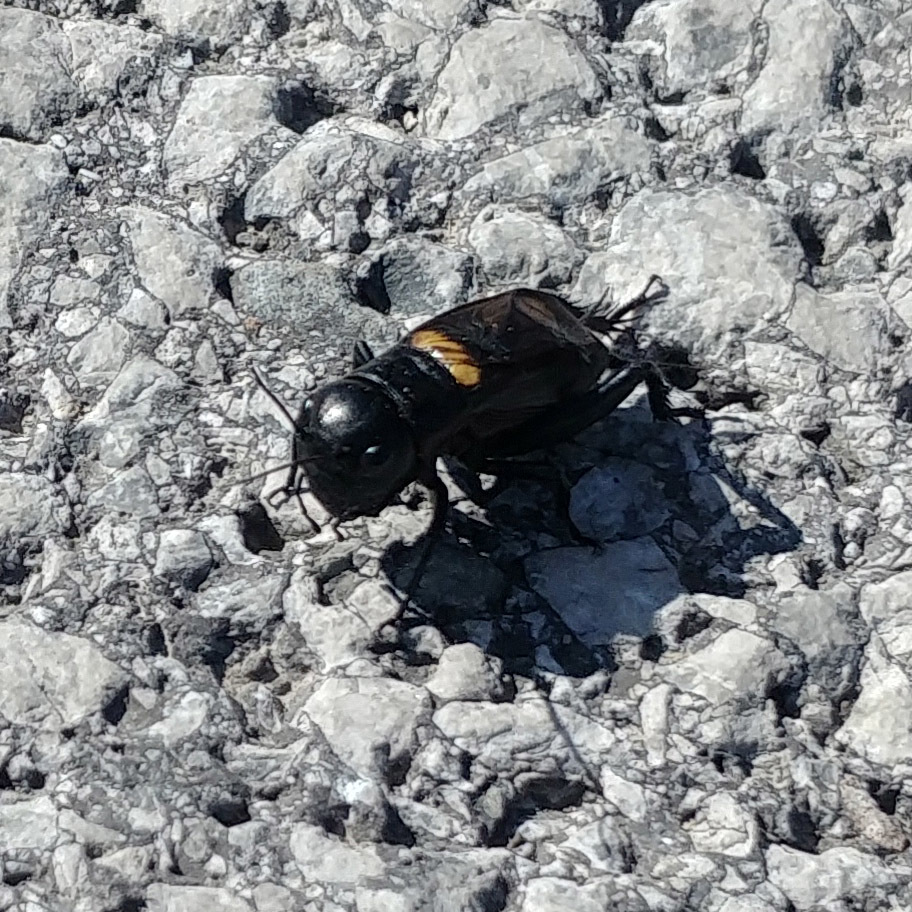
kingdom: Animalia
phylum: Arthropoda
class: Insecta
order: Orthoptera
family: Gryllidae
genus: Gryllus
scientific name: Gryllus campestris
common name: Field cricket
